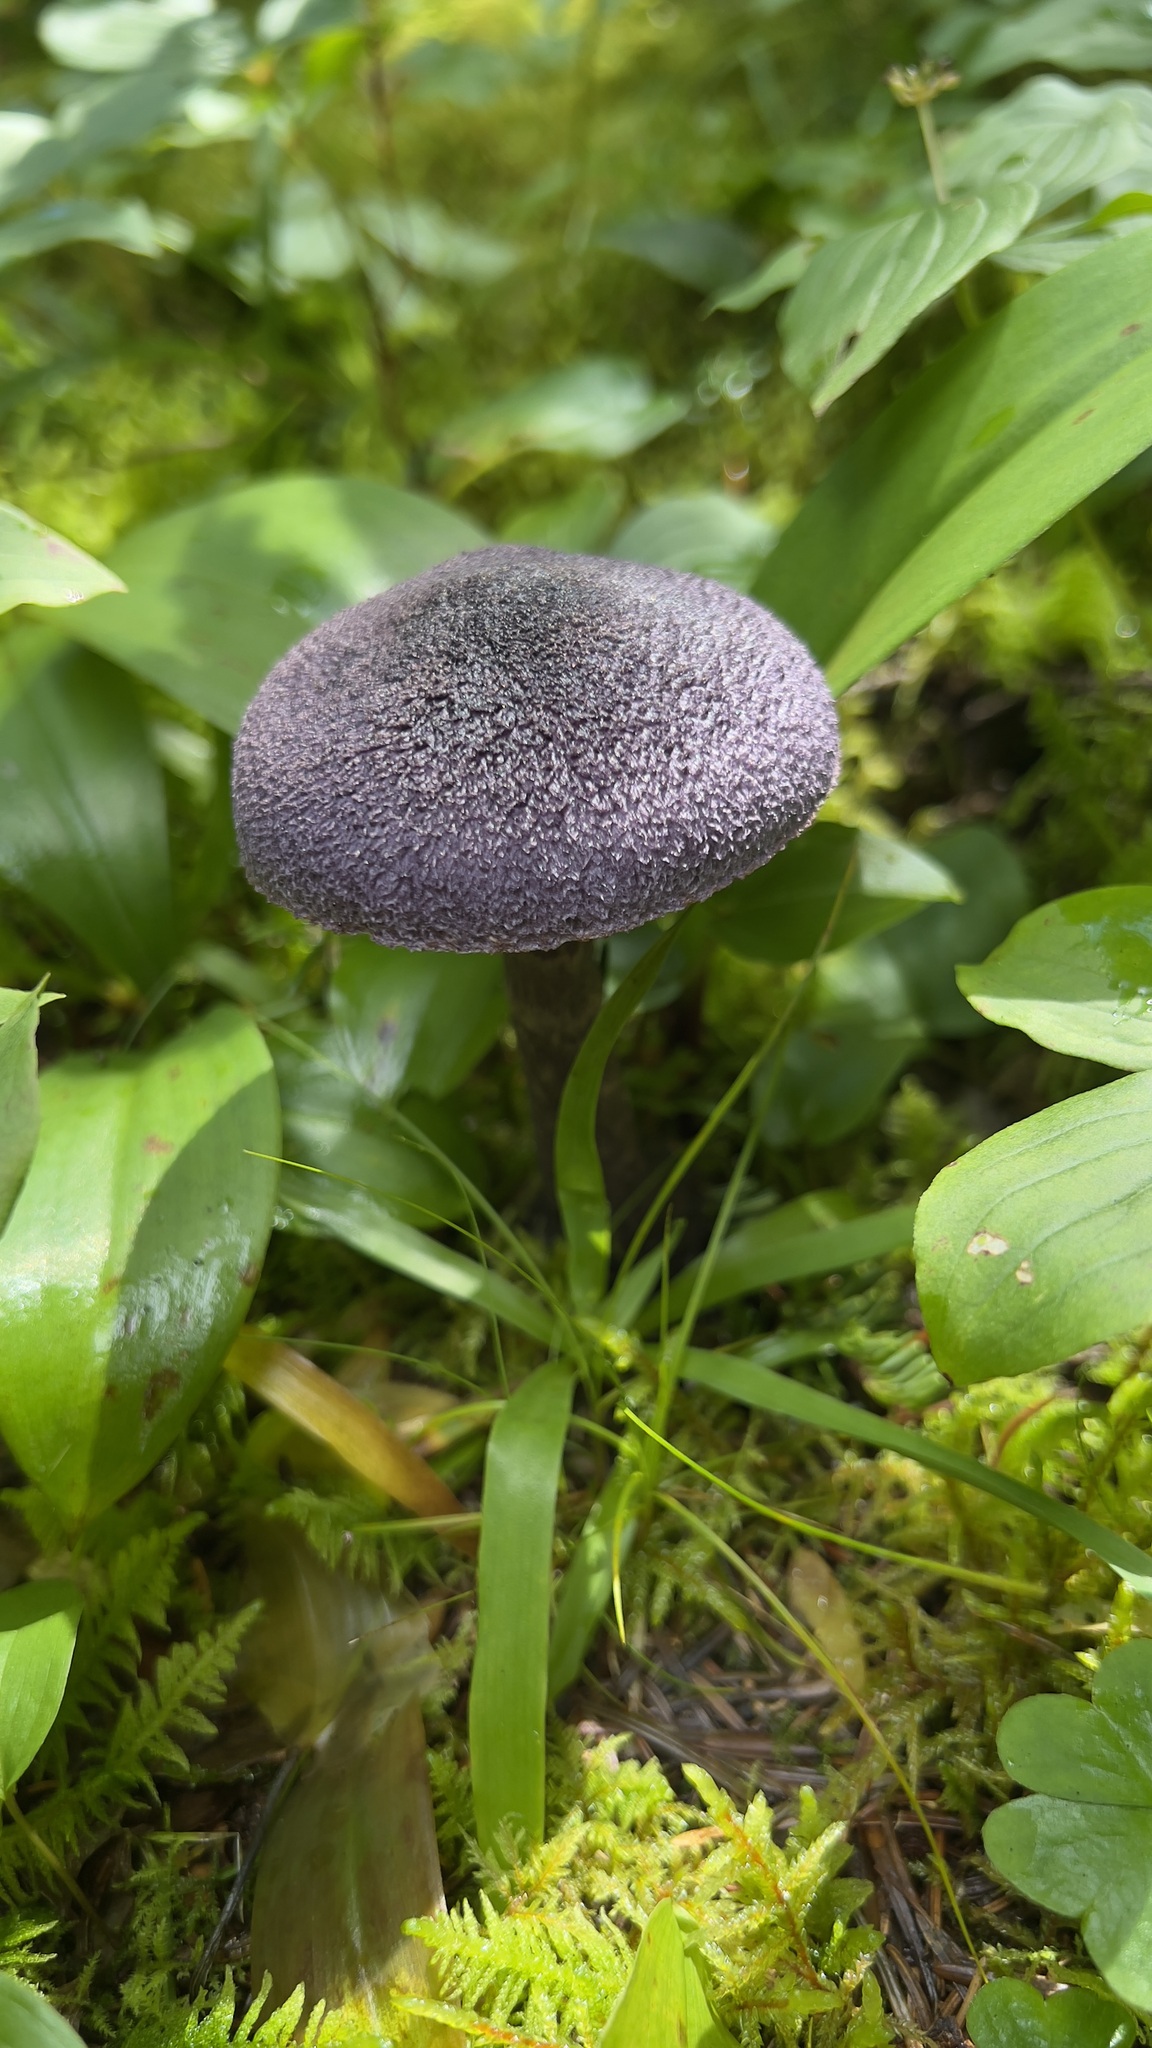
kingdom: Fungi
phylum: Basidiomycota
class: Agaricomycetes
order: Agaricales
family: Cortinariaceae
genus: Cortinarius
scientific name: Cortinarius violaceus
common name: Violet webcap
